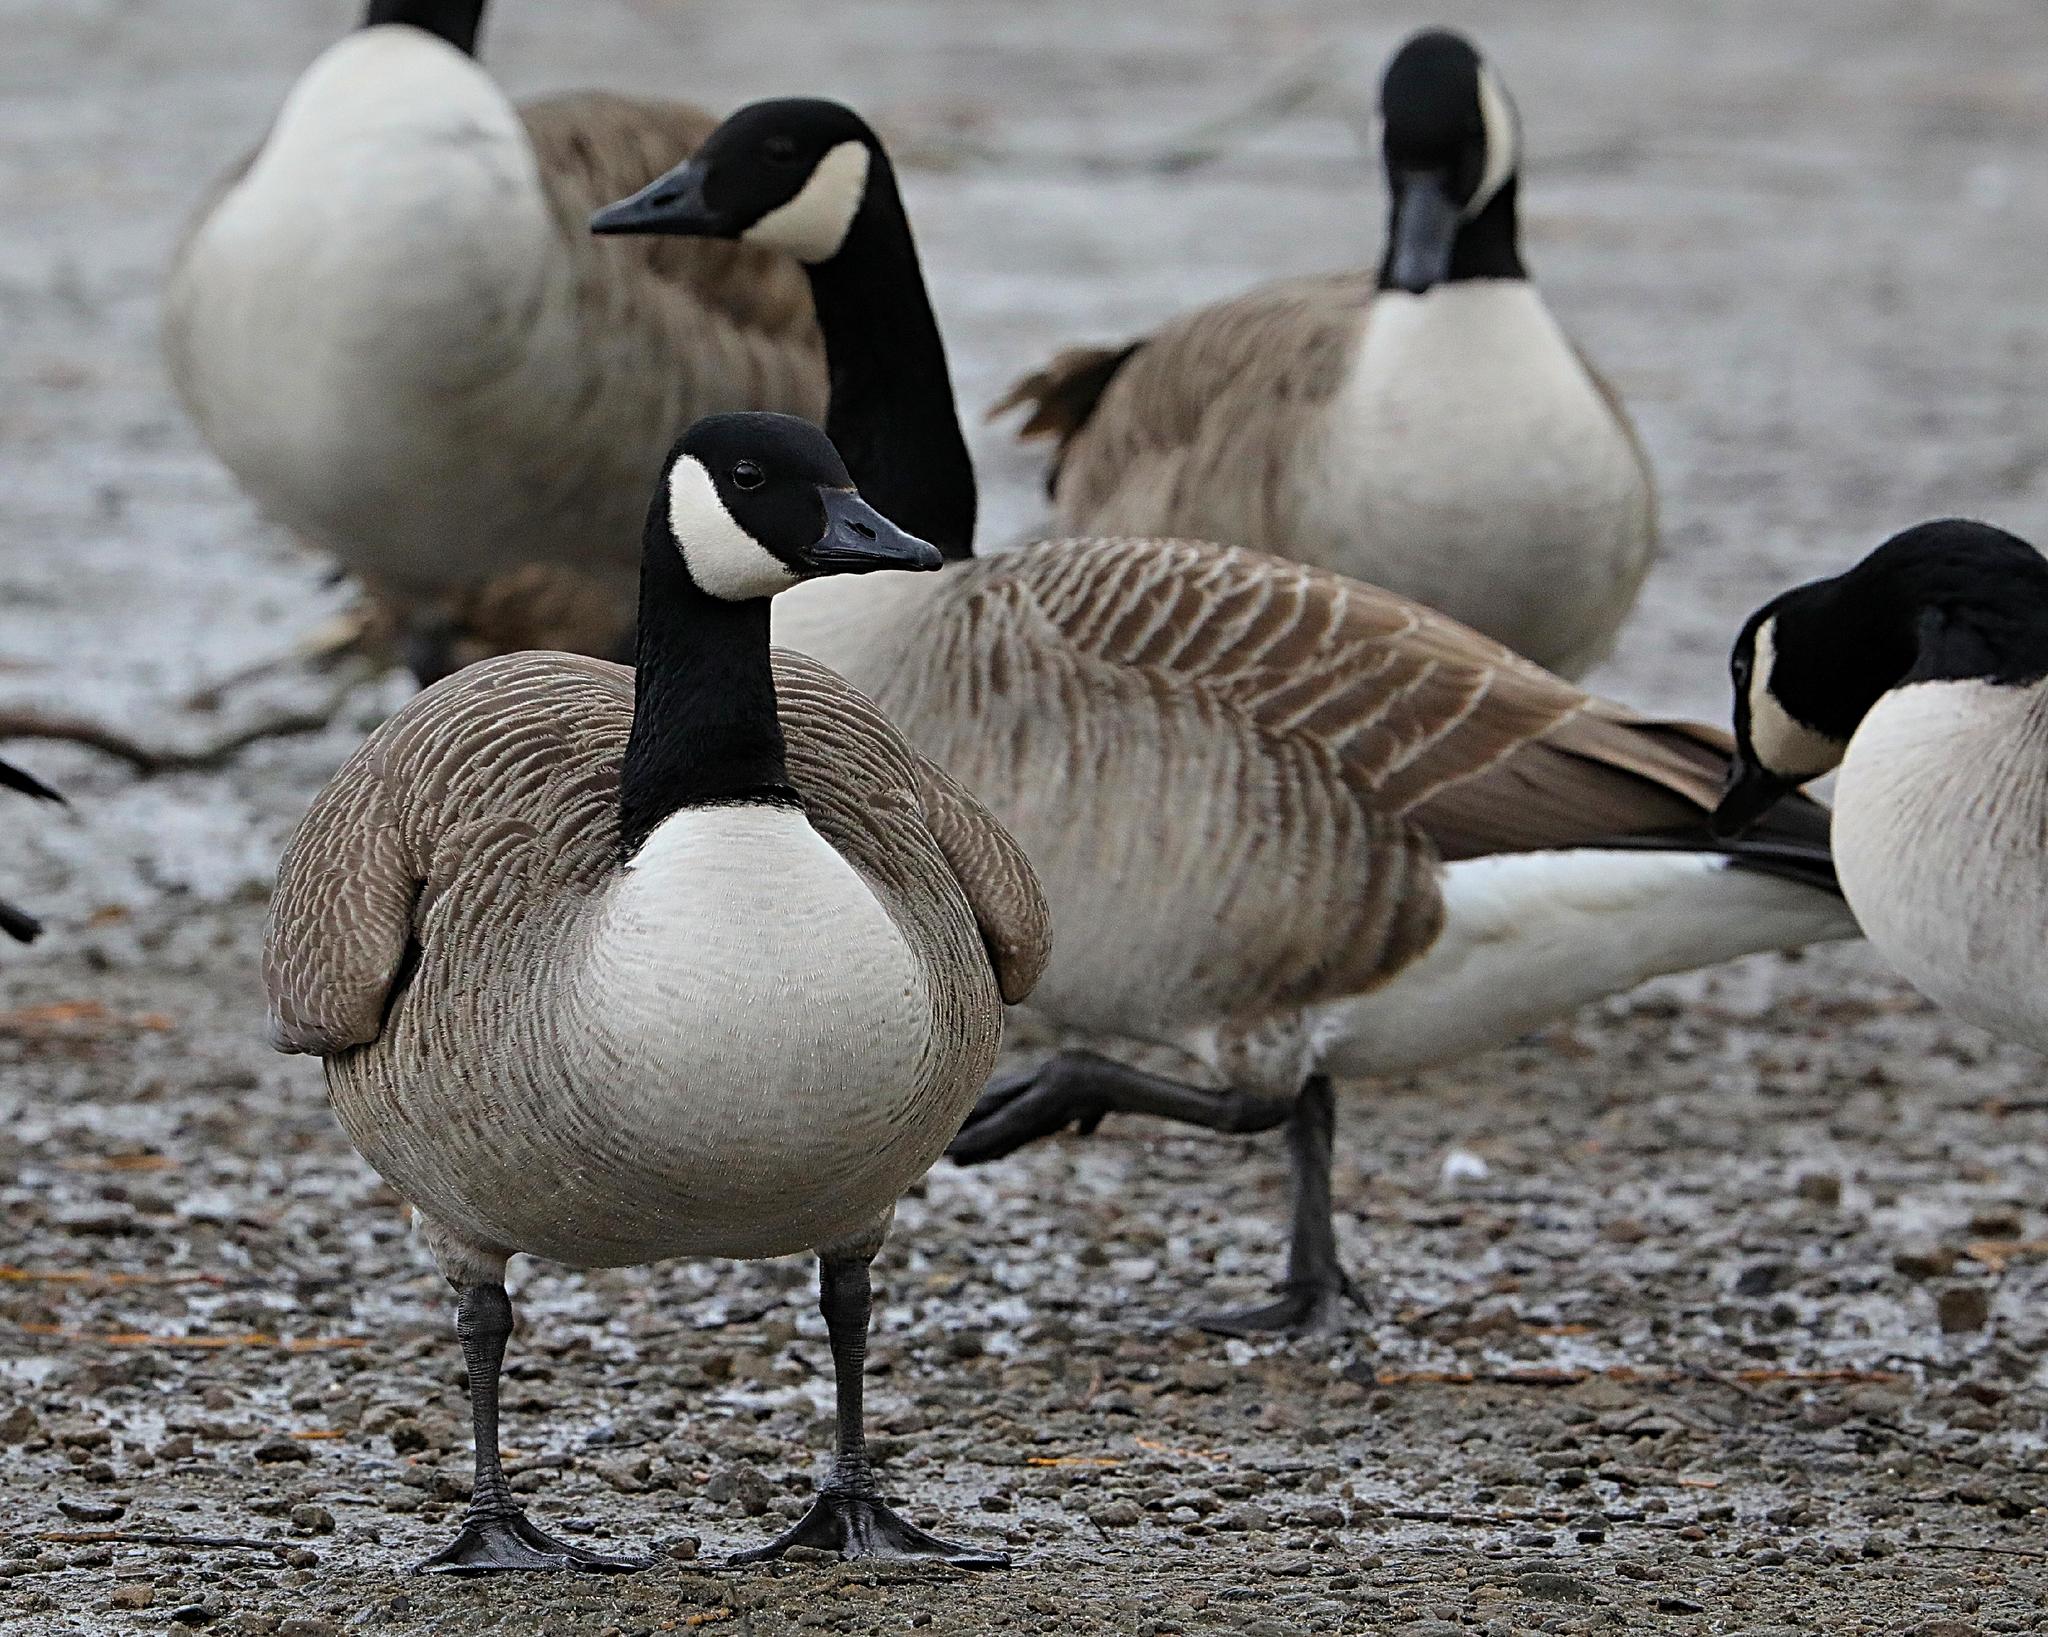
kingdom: Animalia
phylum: Chordata
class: Aves
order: Anseriformes
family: Anatidae
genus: Branta
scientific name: Branta canadensis
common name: Canada goose
